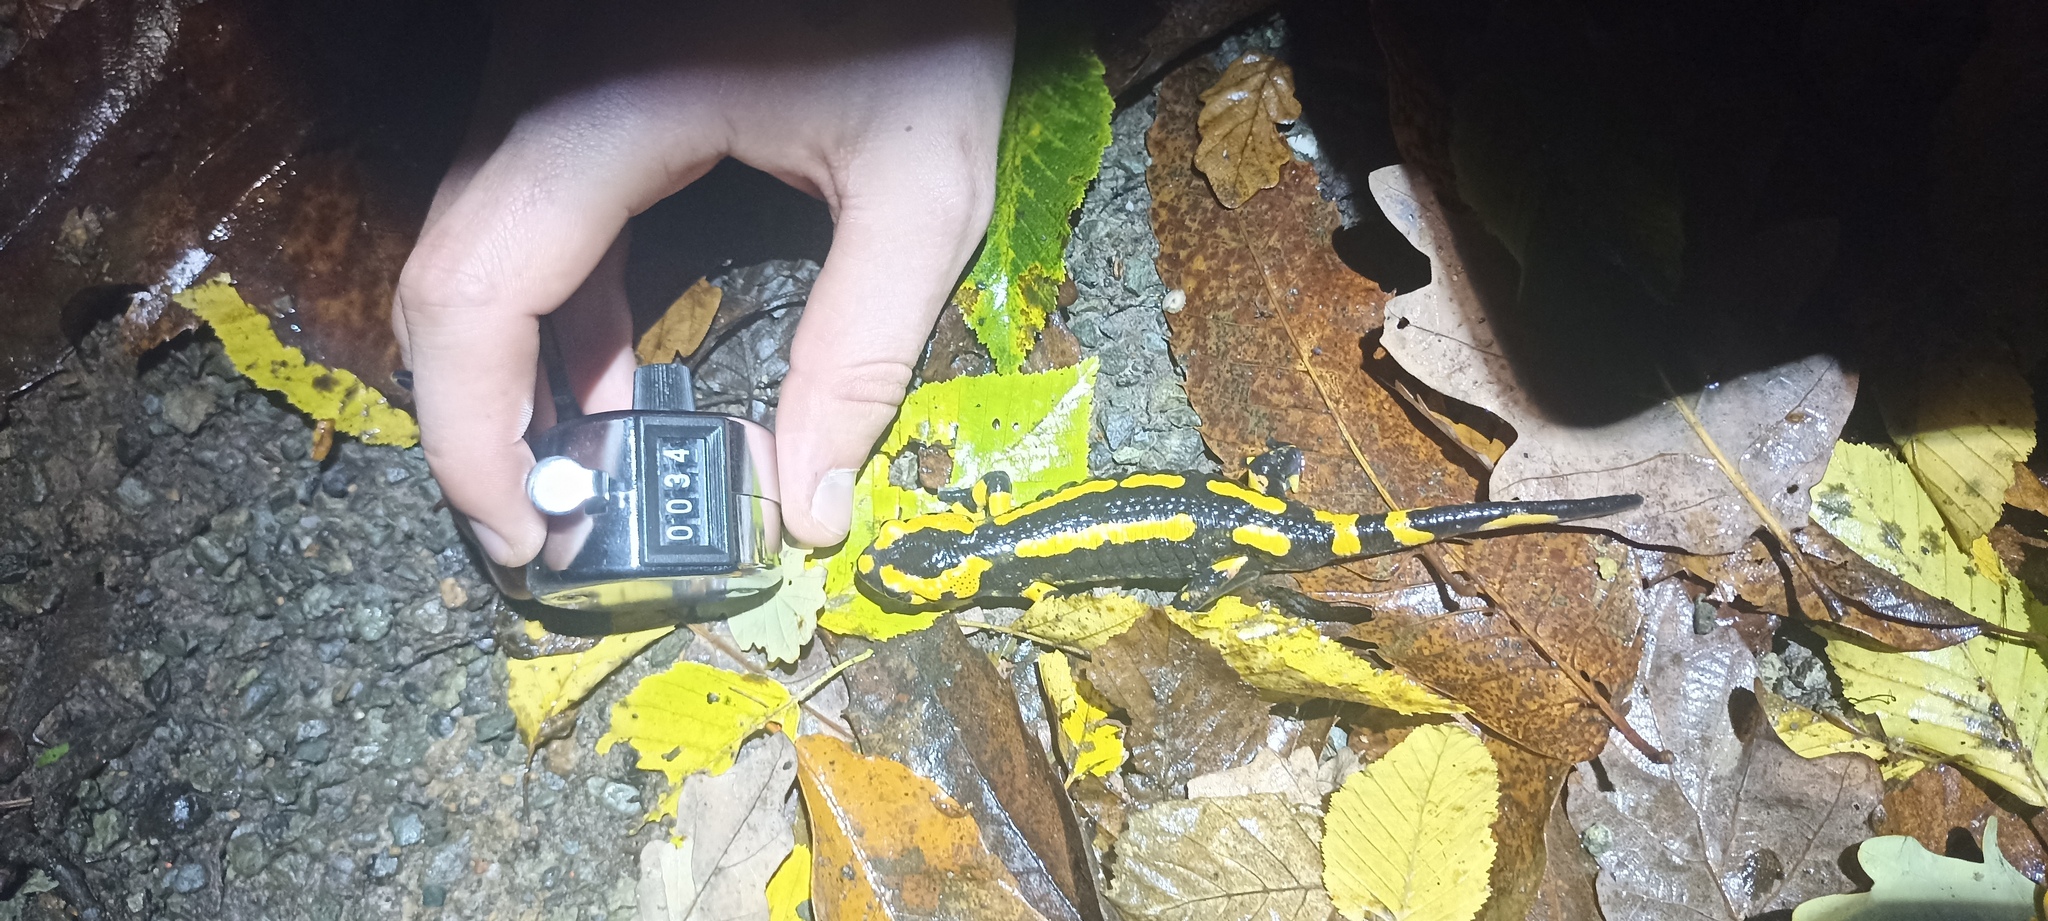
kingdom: Animalia
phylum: Chordata
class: Amphibia
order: Caudata
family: Salamandridae
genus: Salamandra
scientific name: Salamandra salamandra
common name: Fire salamander
